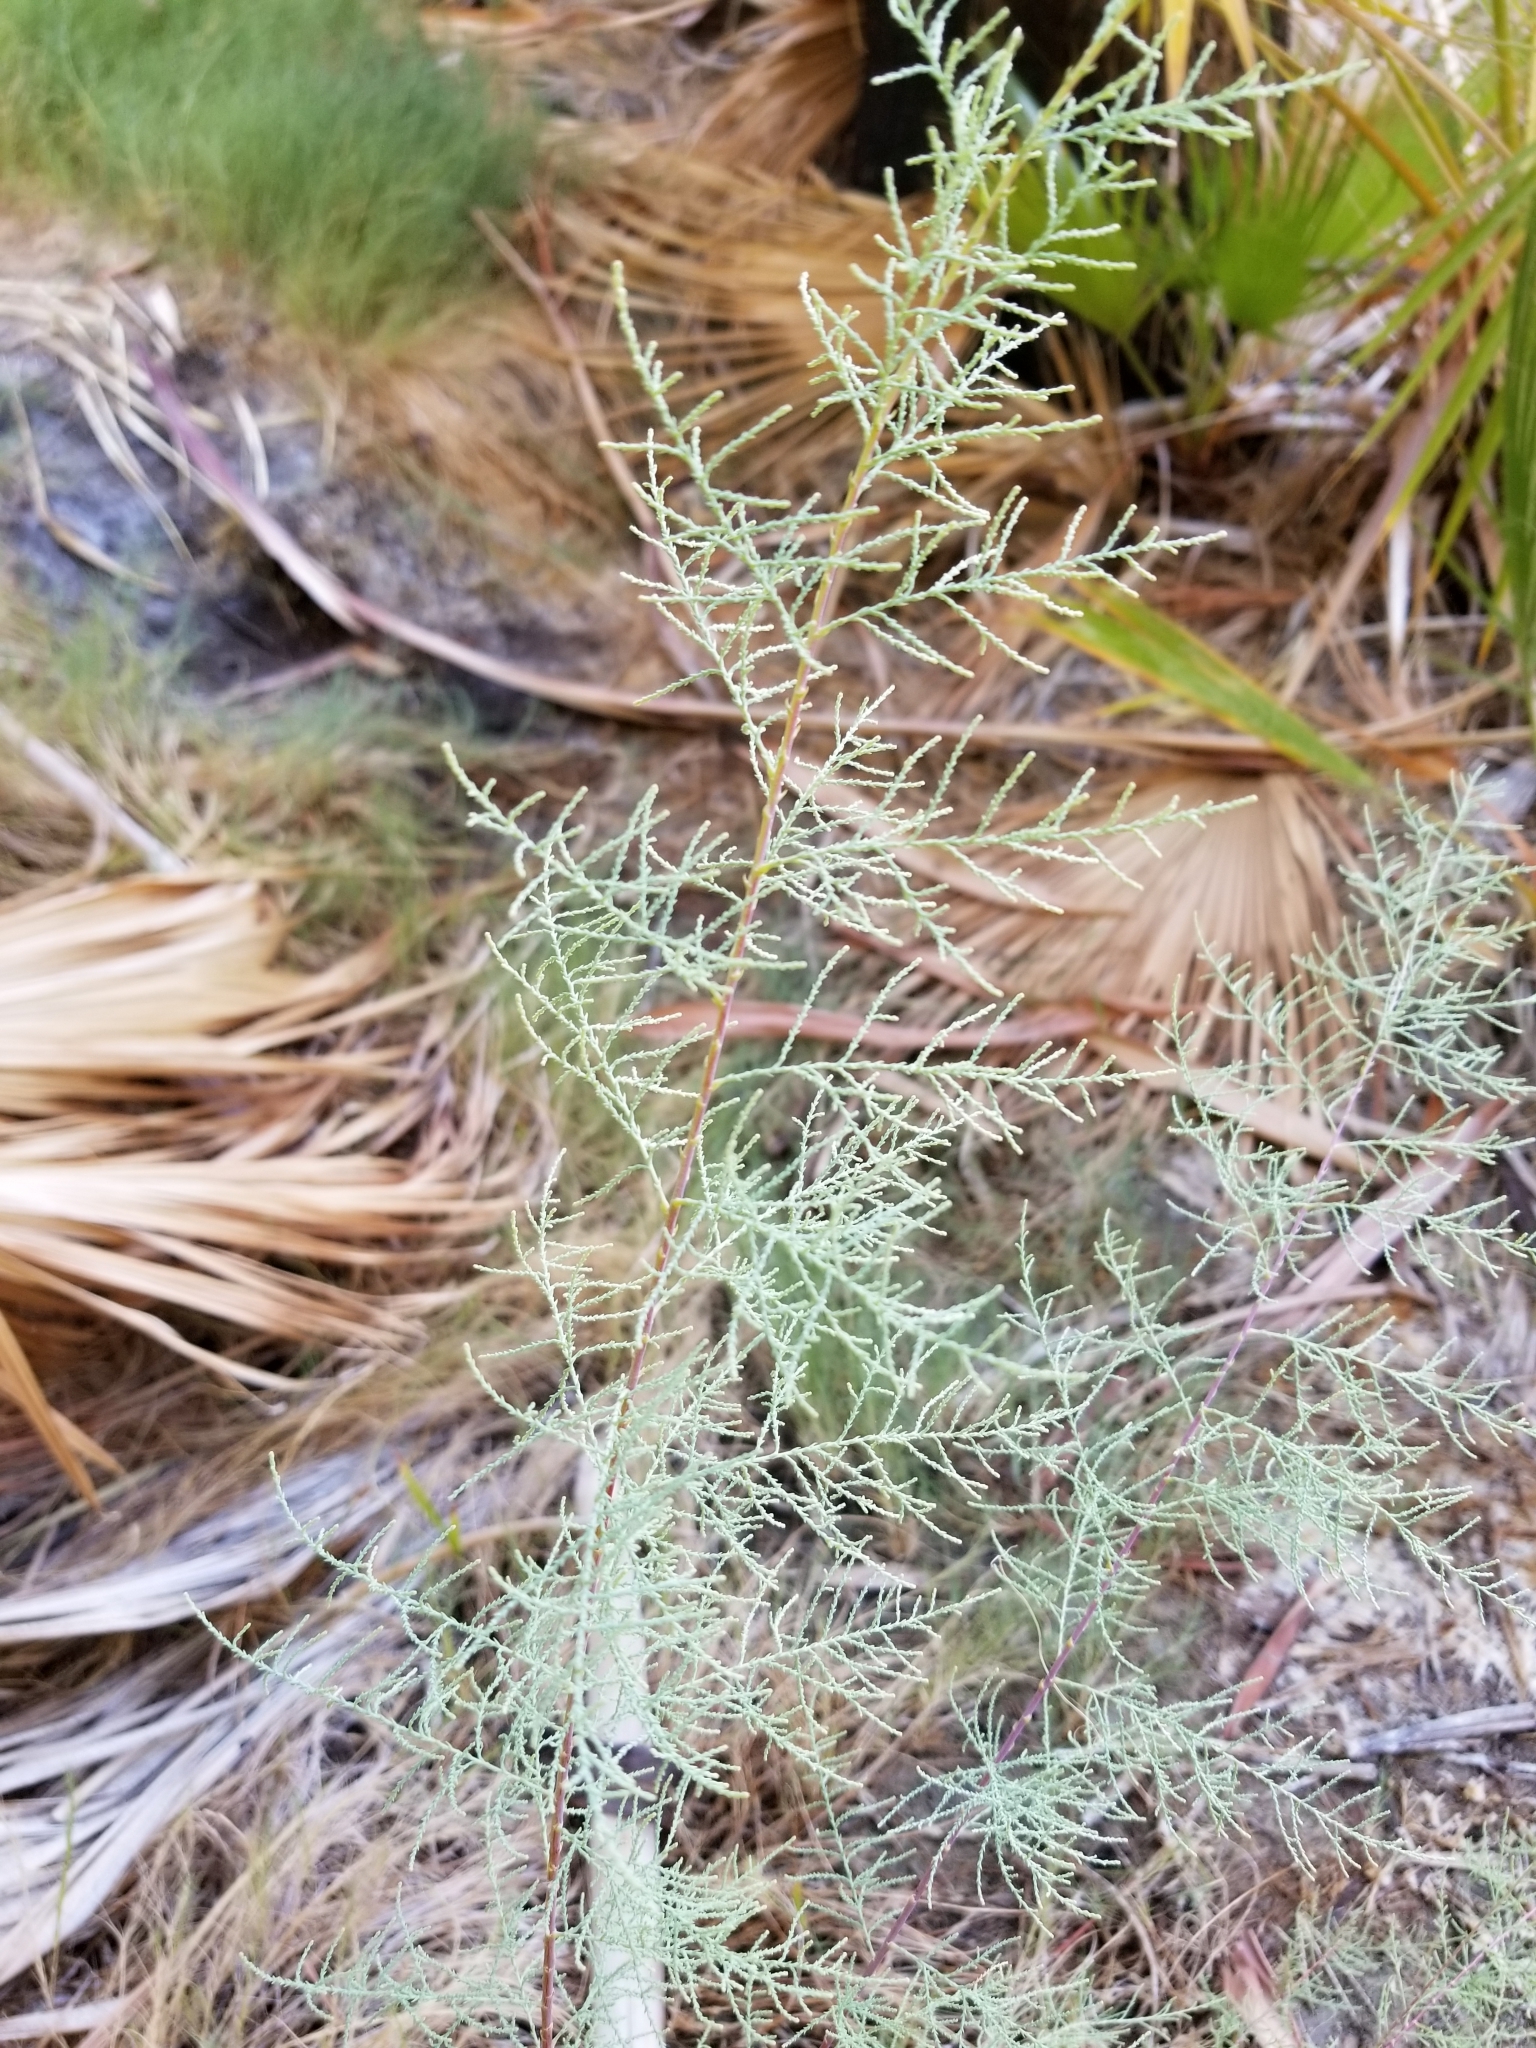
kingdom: Plantae
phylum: Tracheophyta
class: Magnoliopsida
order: Caryophyllales
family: Tamaricaceae
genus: Tamarix
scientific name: Tamarix ramosissima
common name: Pink tamarisk
